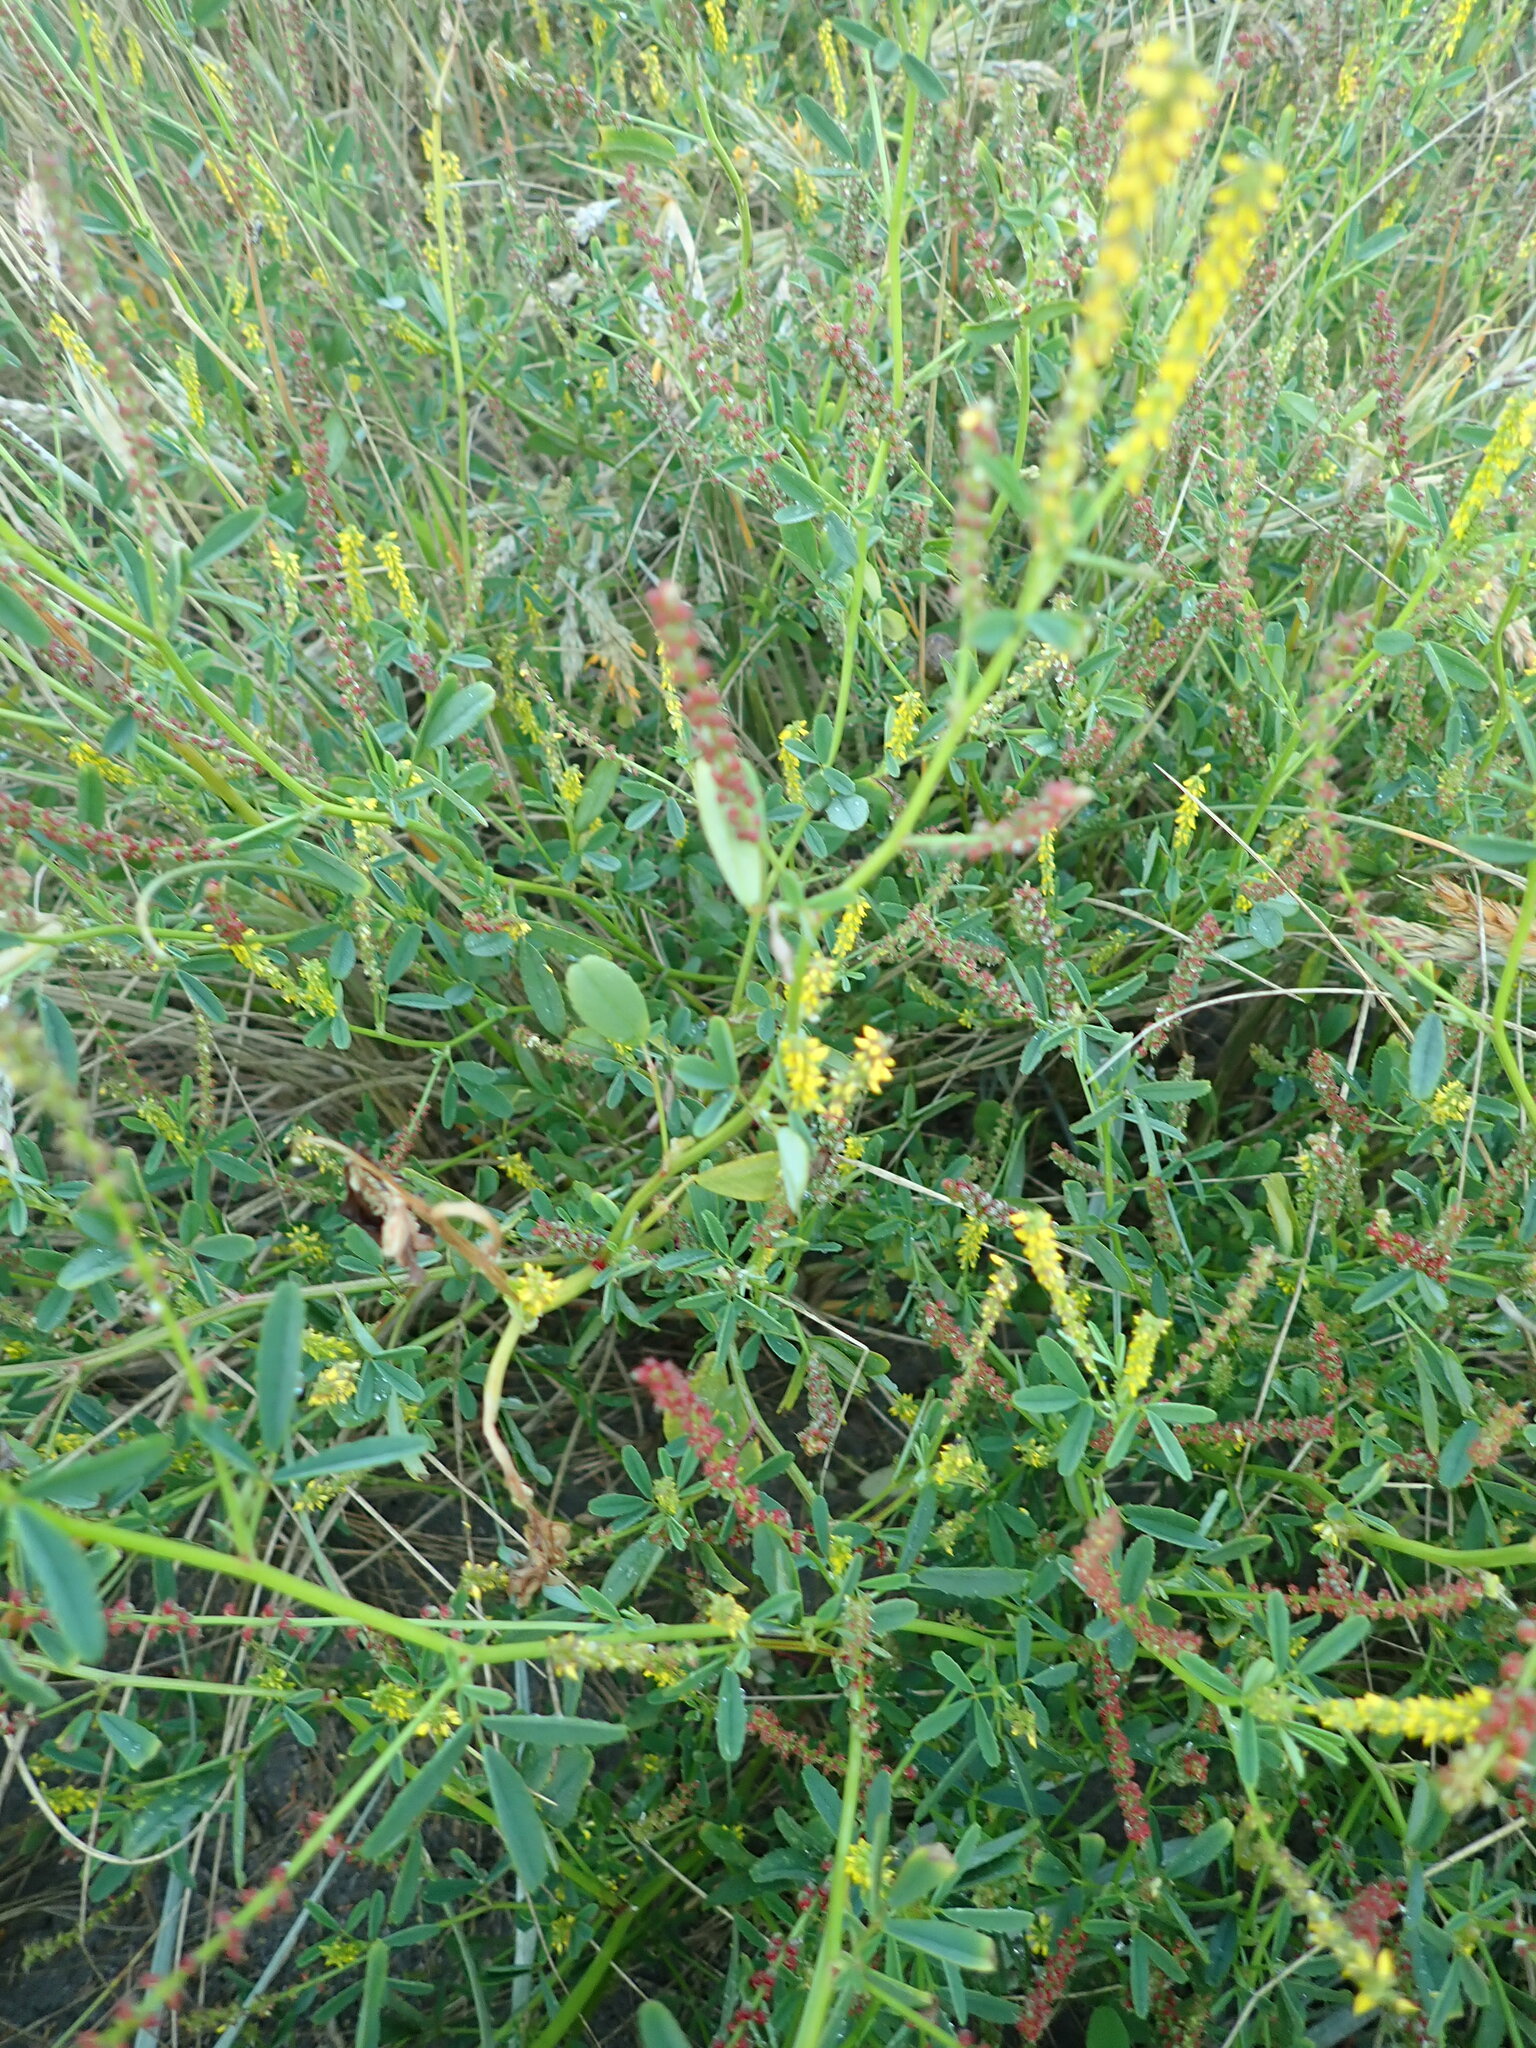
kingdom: Plantae
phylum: Tracheophyta
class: Magnoliopsida
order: Fabales
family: Fabaceae
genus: Melilotus
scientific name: Melilotus indicus
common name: Small melilot
